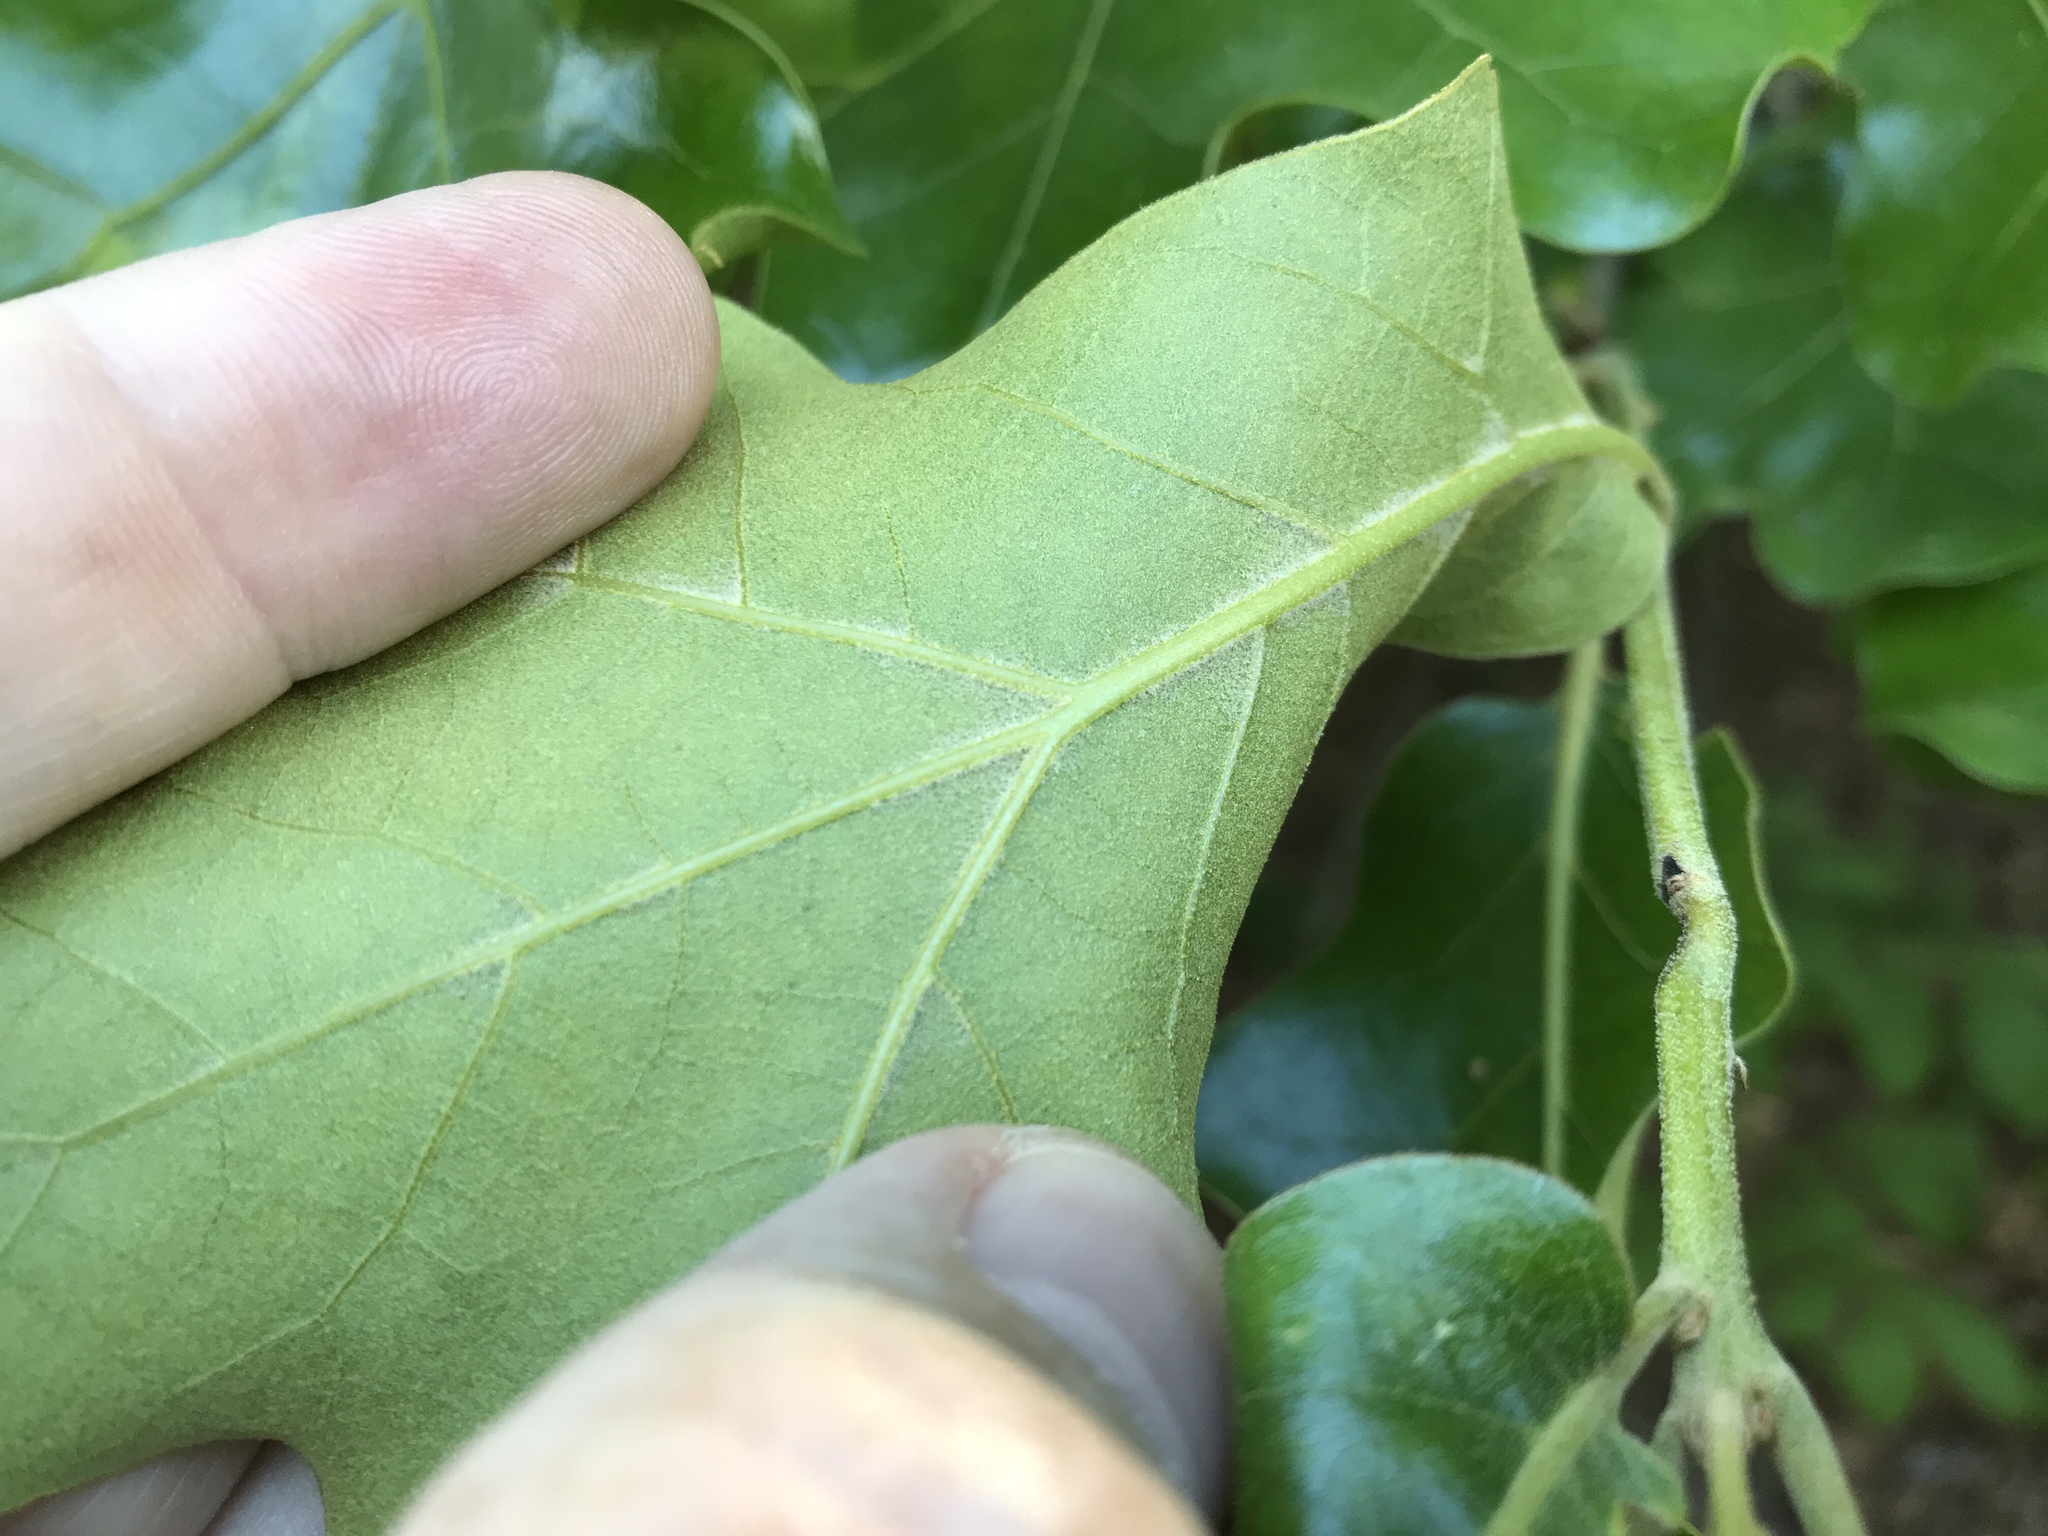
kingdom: Plantae
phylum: Tracheophyta
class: Magnoliopsida
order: Fagales
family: Fagaceae
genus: Quercus
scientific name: Quercus marilandica
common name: Blackjack oak
